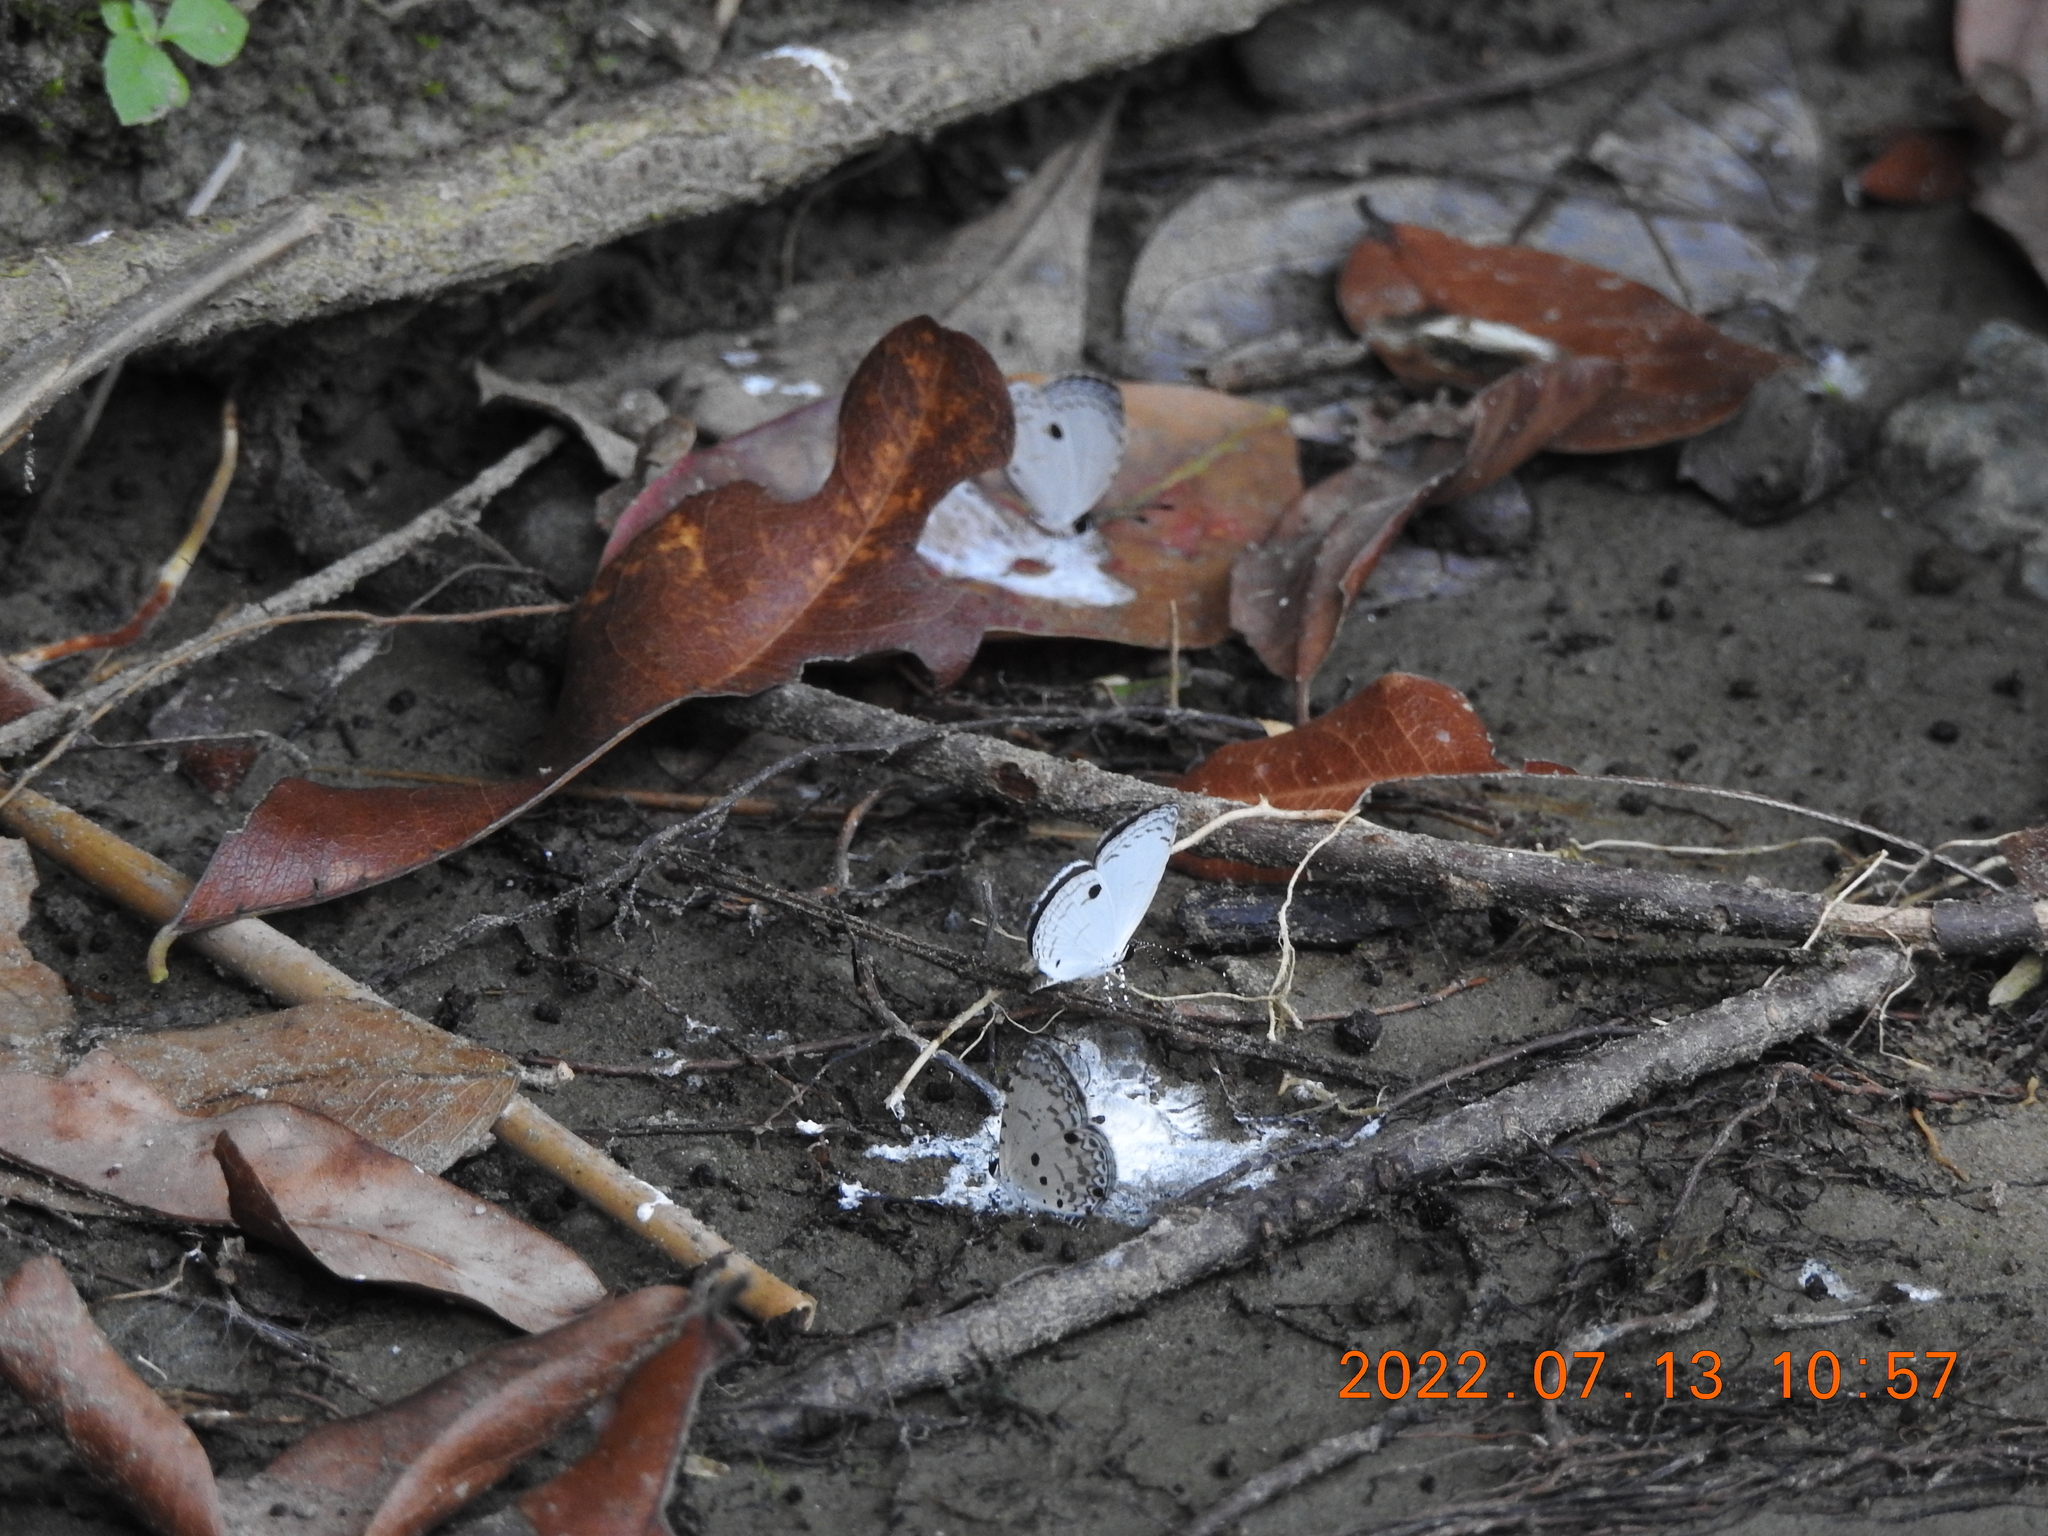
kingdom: Animalia
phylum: Arthropoda
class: Insecta
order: Lepidoptera
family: Lycaenidae
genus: Neopithecops
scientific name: Neopithecops zalmora
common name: Quaker
